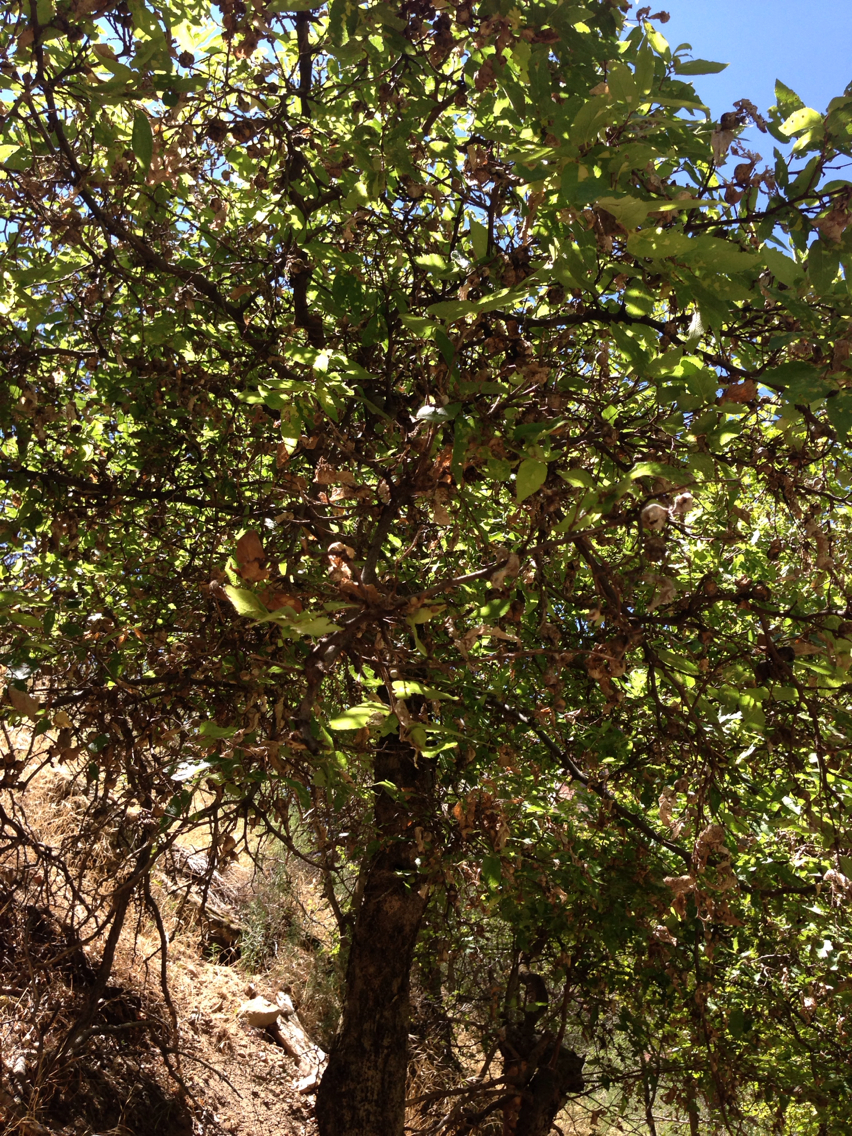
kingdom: Plantae
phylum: Tracheophyta
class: Magnoliopsida
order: Rosales
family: Cannabaceae
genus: Celtis
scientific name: Celtis reticulata
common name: Netleaf hackberry
